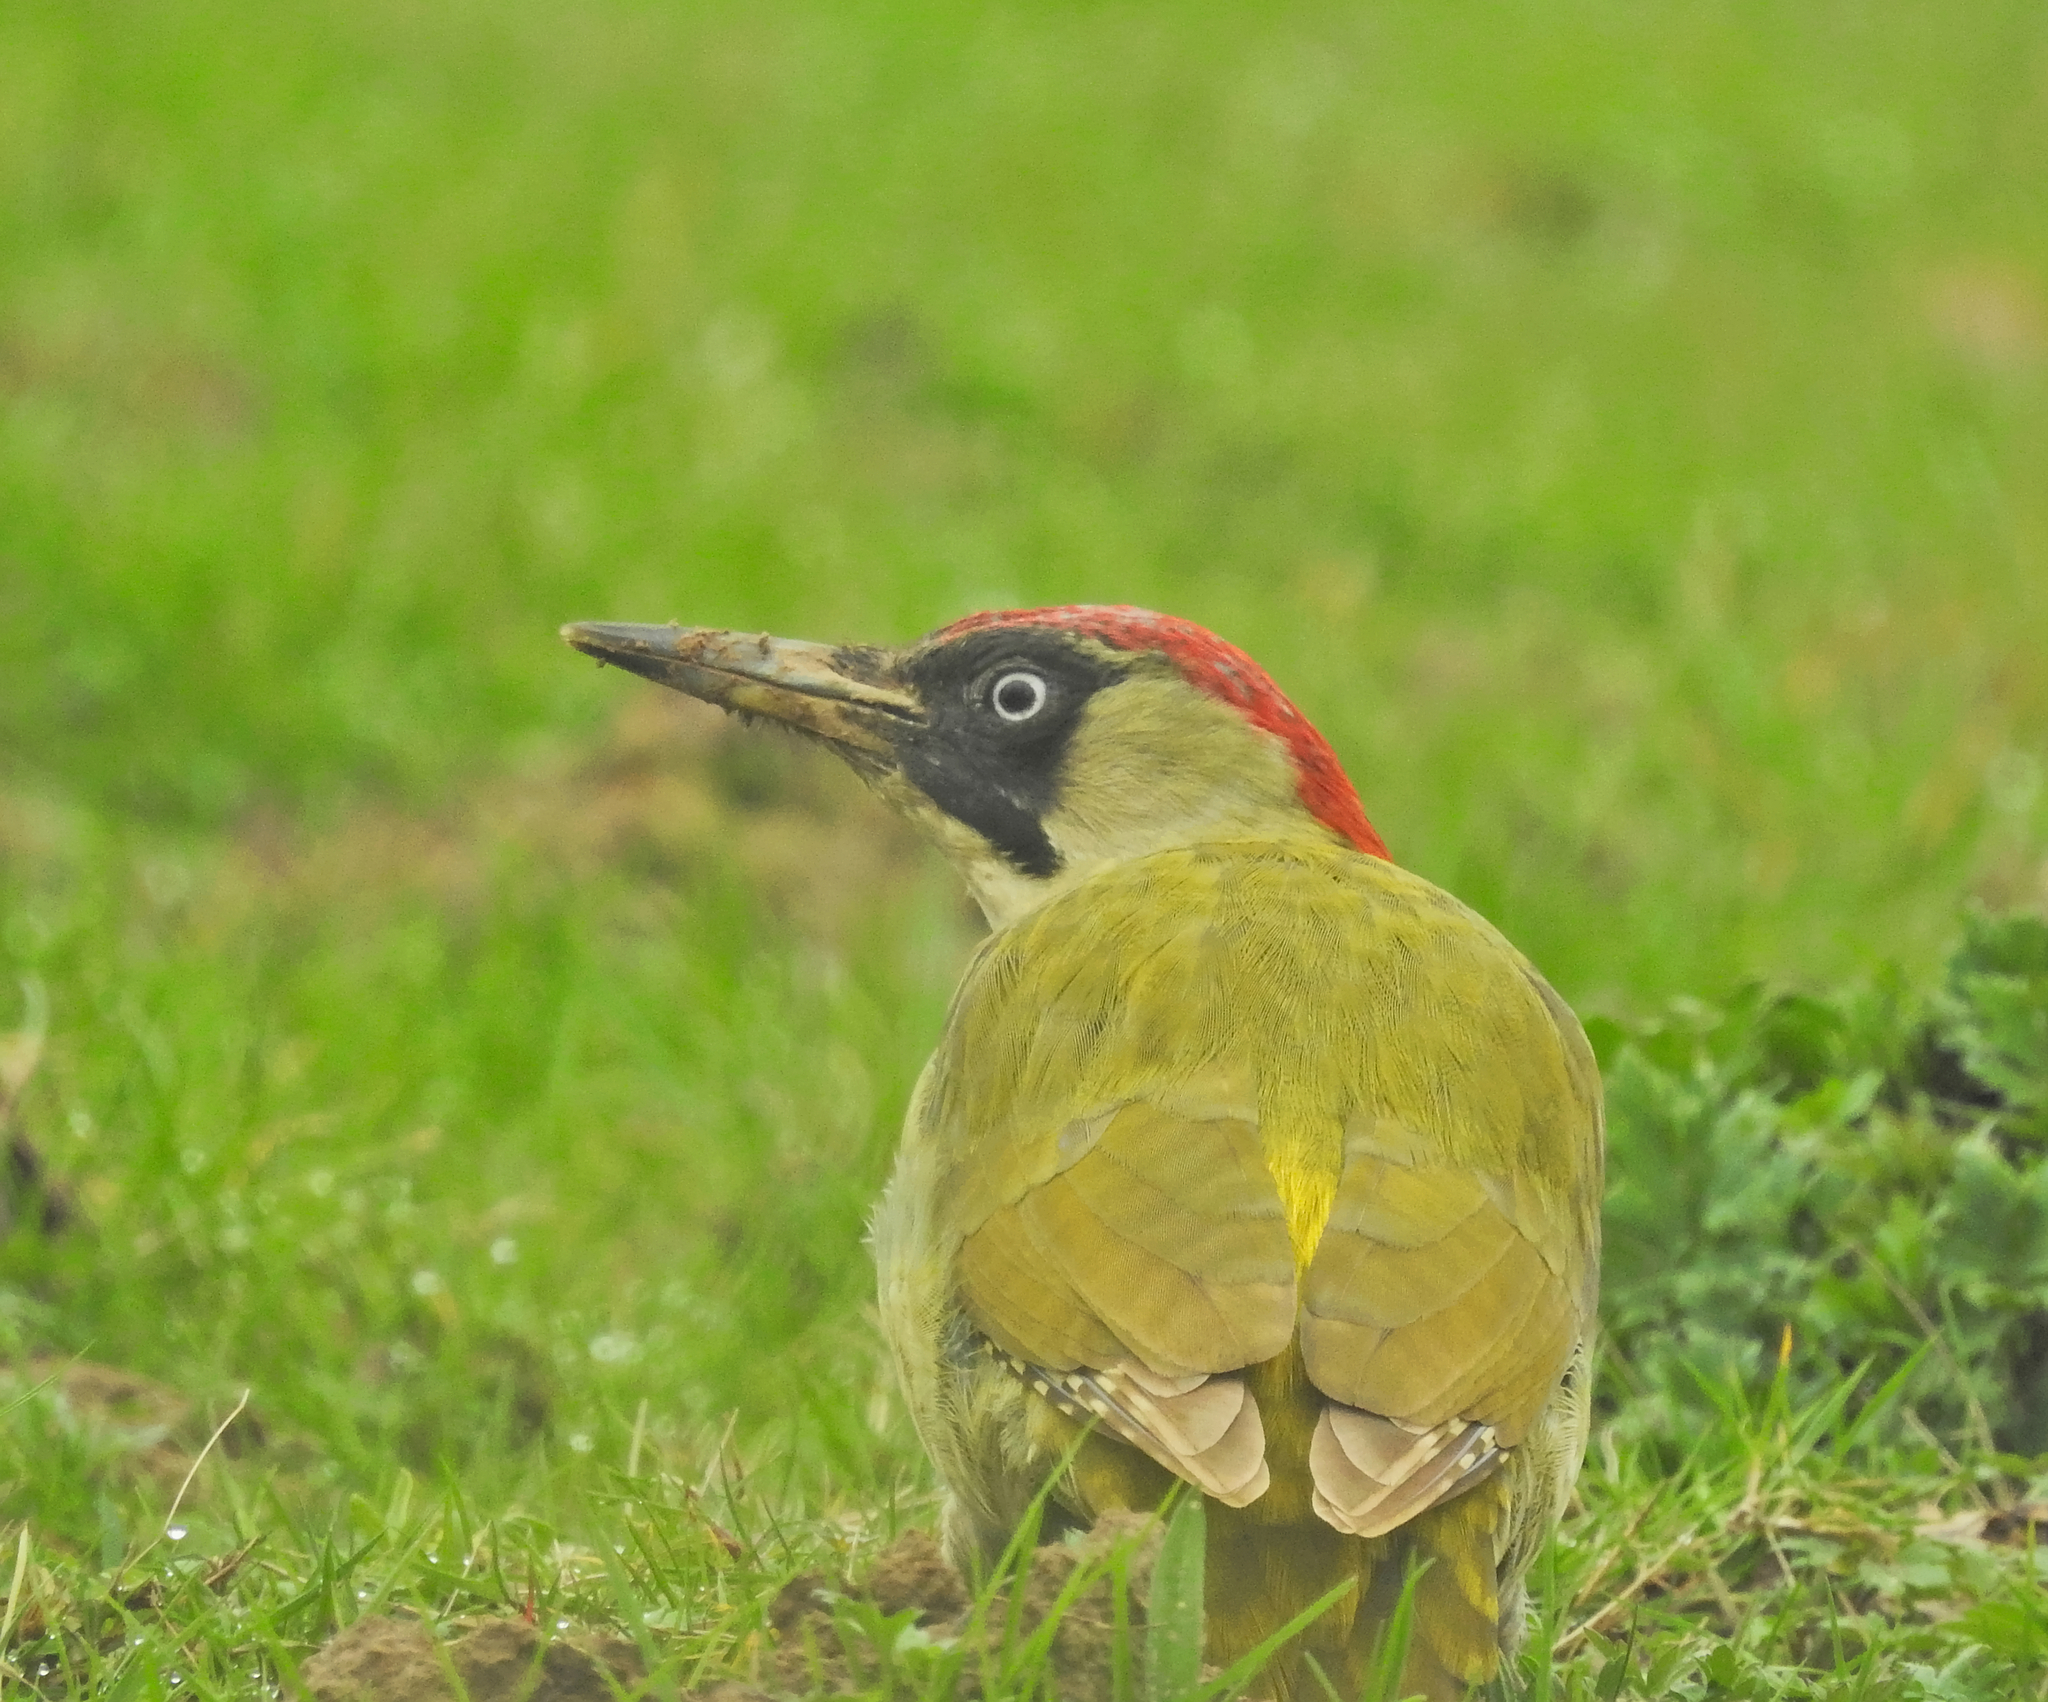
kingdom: Animalia
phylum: Chordata
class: Aves
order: Piciformes
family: Picidae
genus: Picus
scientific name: Picus viridis
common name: European green woodpecker
